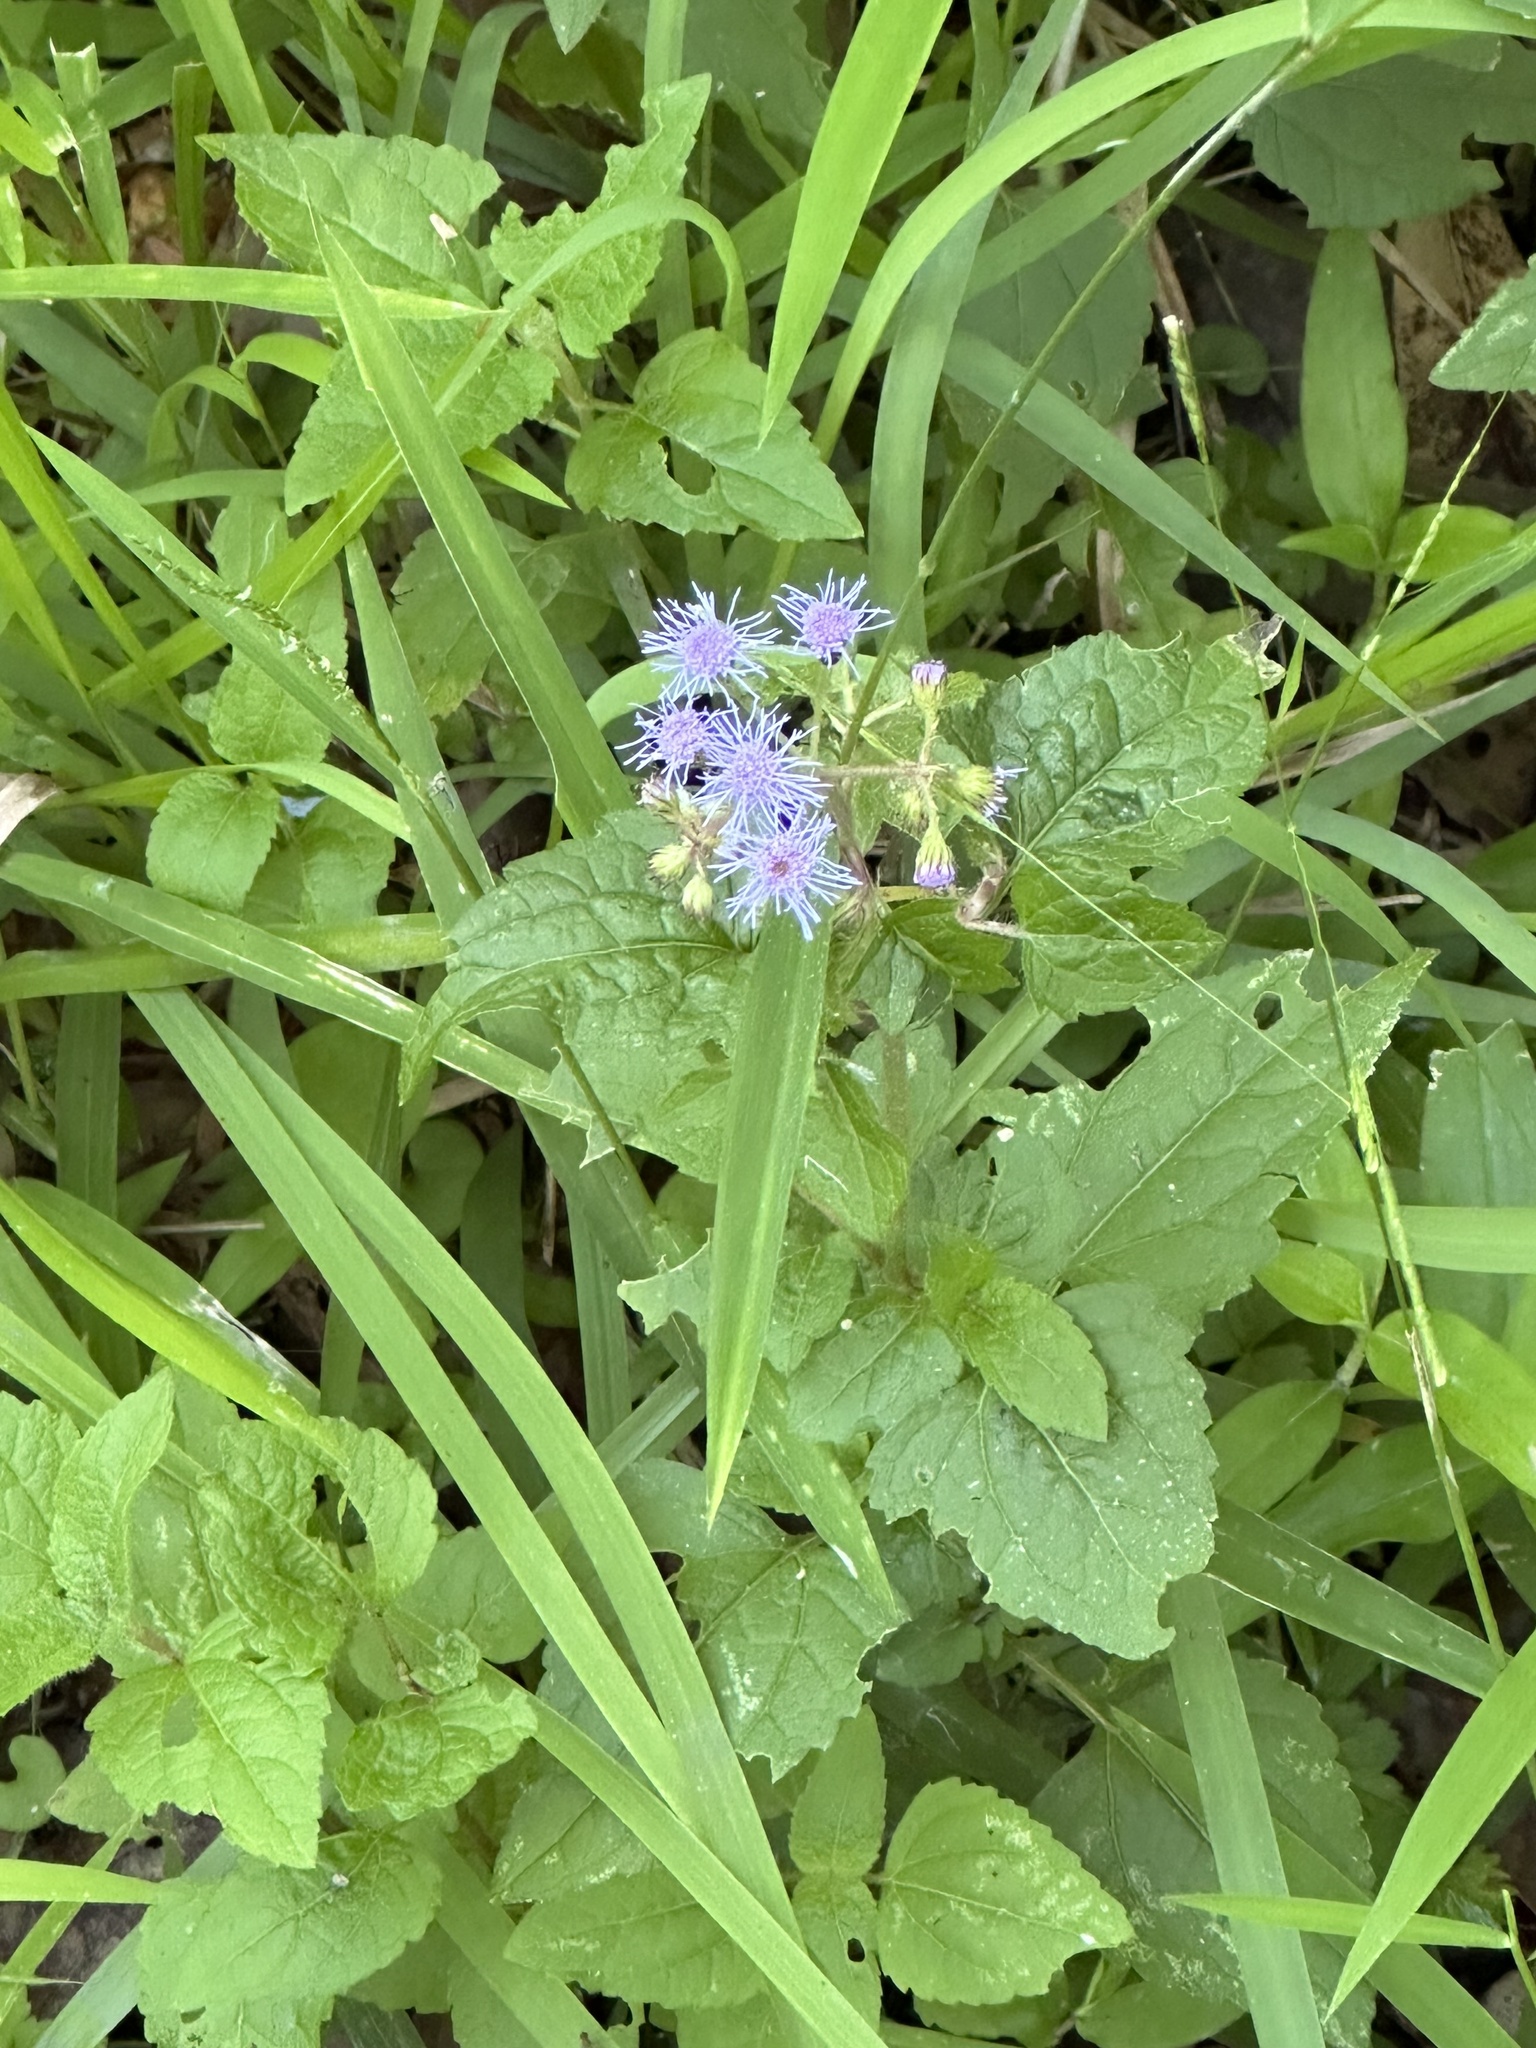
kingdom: Plantae
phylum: Tracheophyta
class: Magnoliopsida
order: Asterales
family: Asteraceae
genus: Conoclinium
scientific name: Conoclinium coelestinum
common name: Blue mistflower
